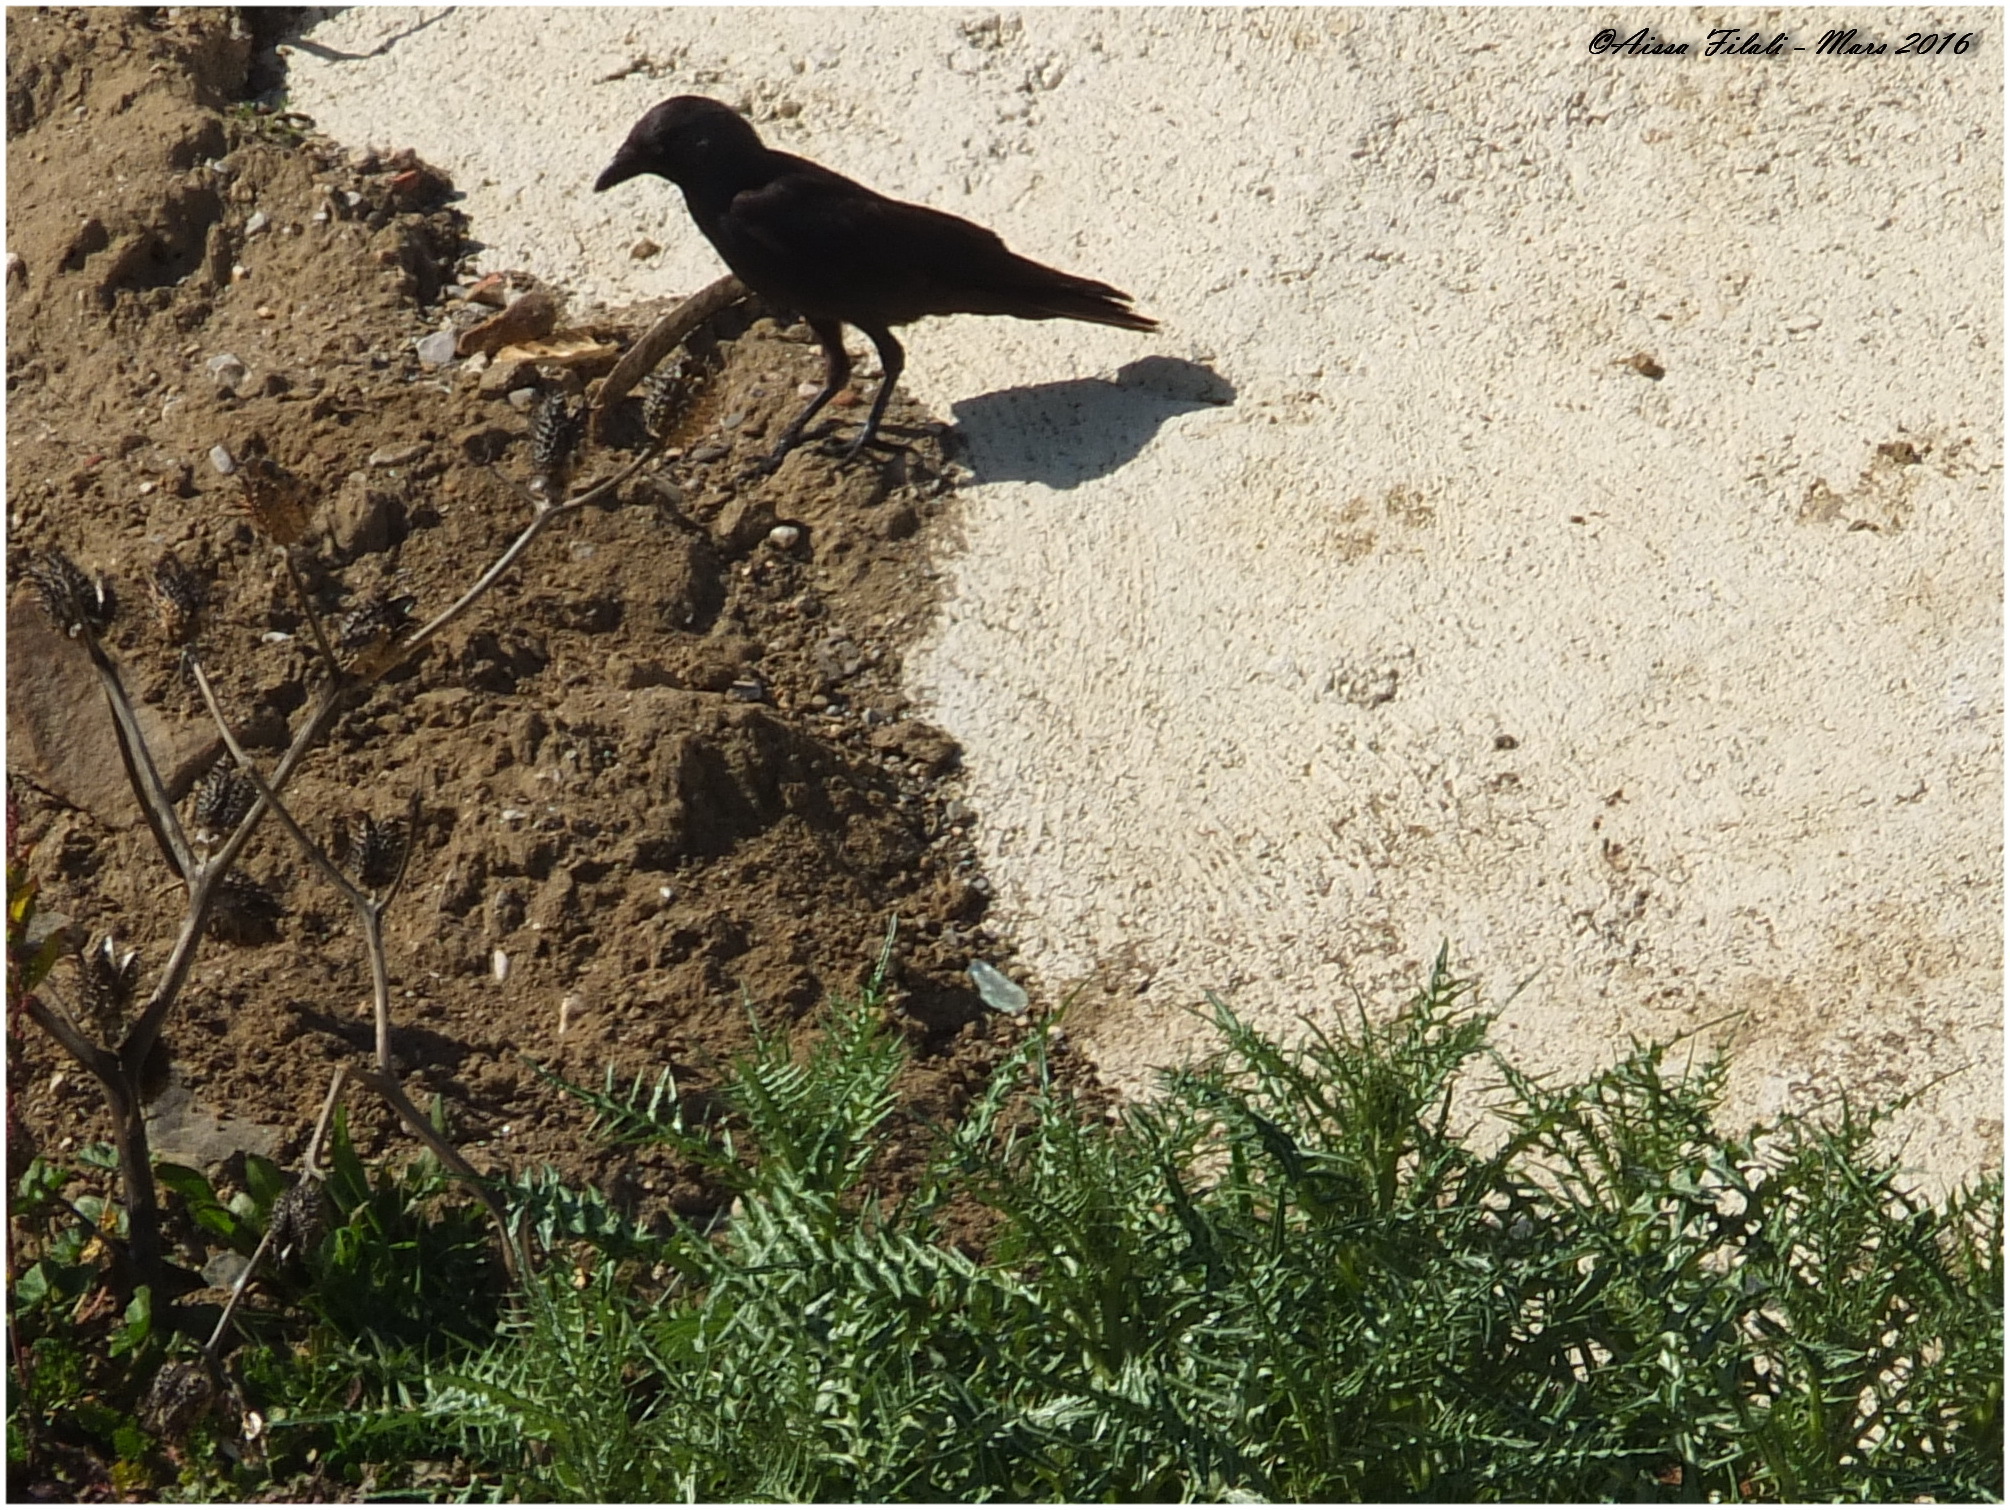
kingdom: Animalia
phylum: Chordata
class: Aves
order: Passeriformes
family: Corvidae
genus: Coloeus
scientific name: Coloeus monedula
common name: Western jackdaw
